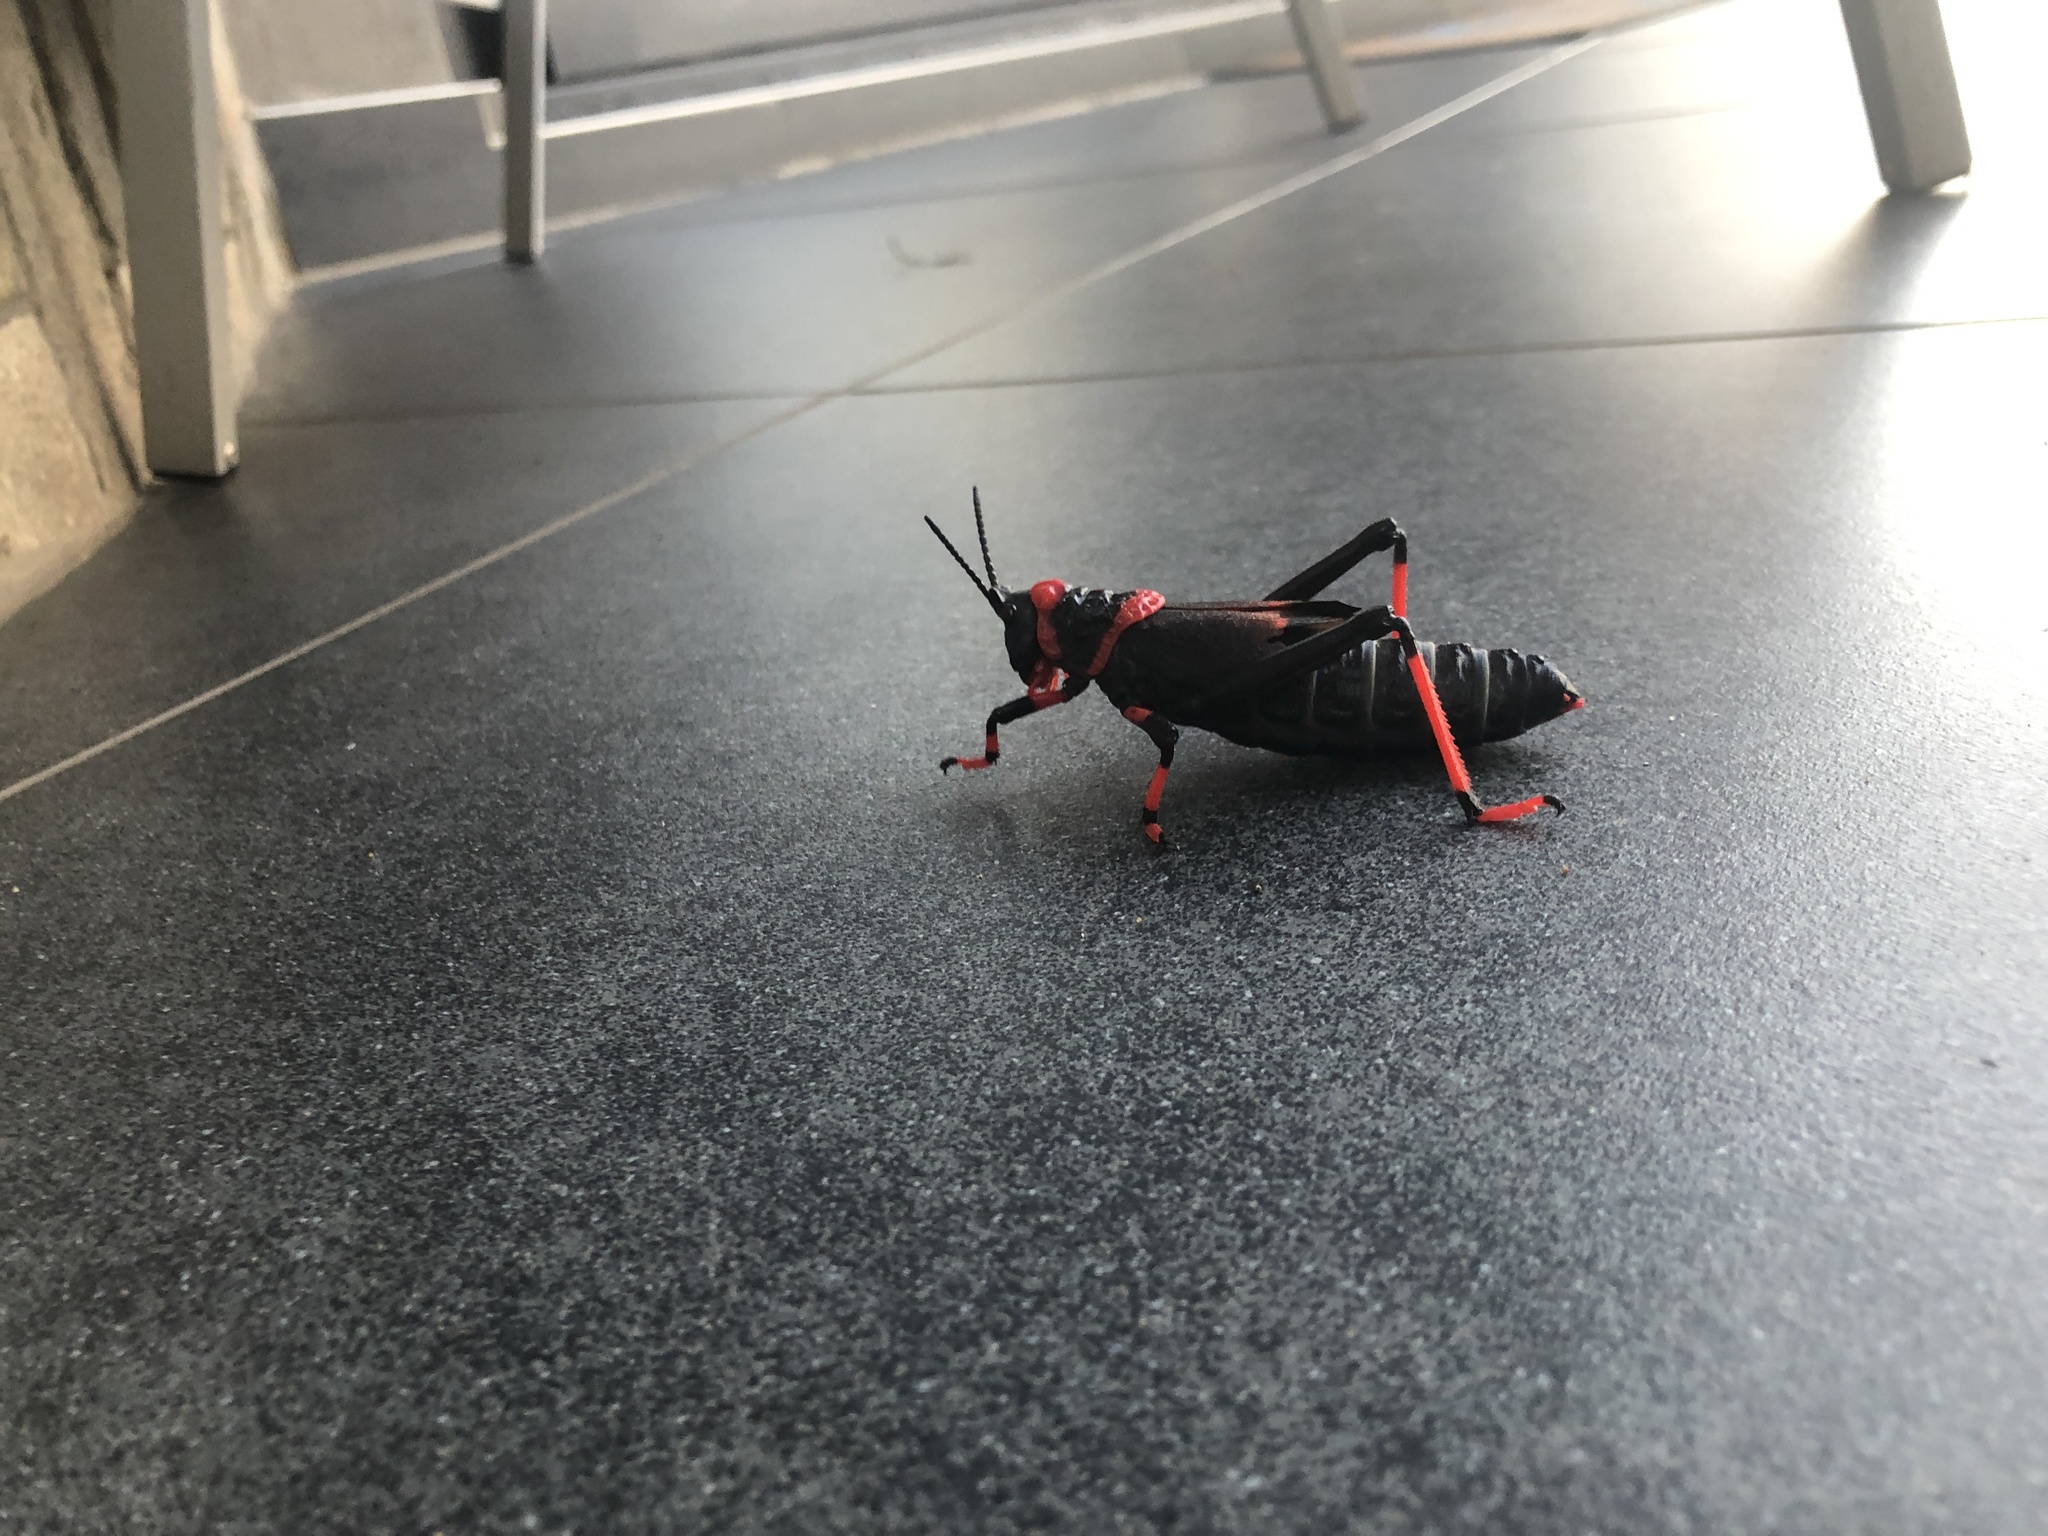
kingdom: Animalia
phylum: Arthropoda
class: Insecta
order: Orthoptera
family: Pyrgomorphidae
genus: Dictyophorus
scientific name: Dictyophorus spumans
